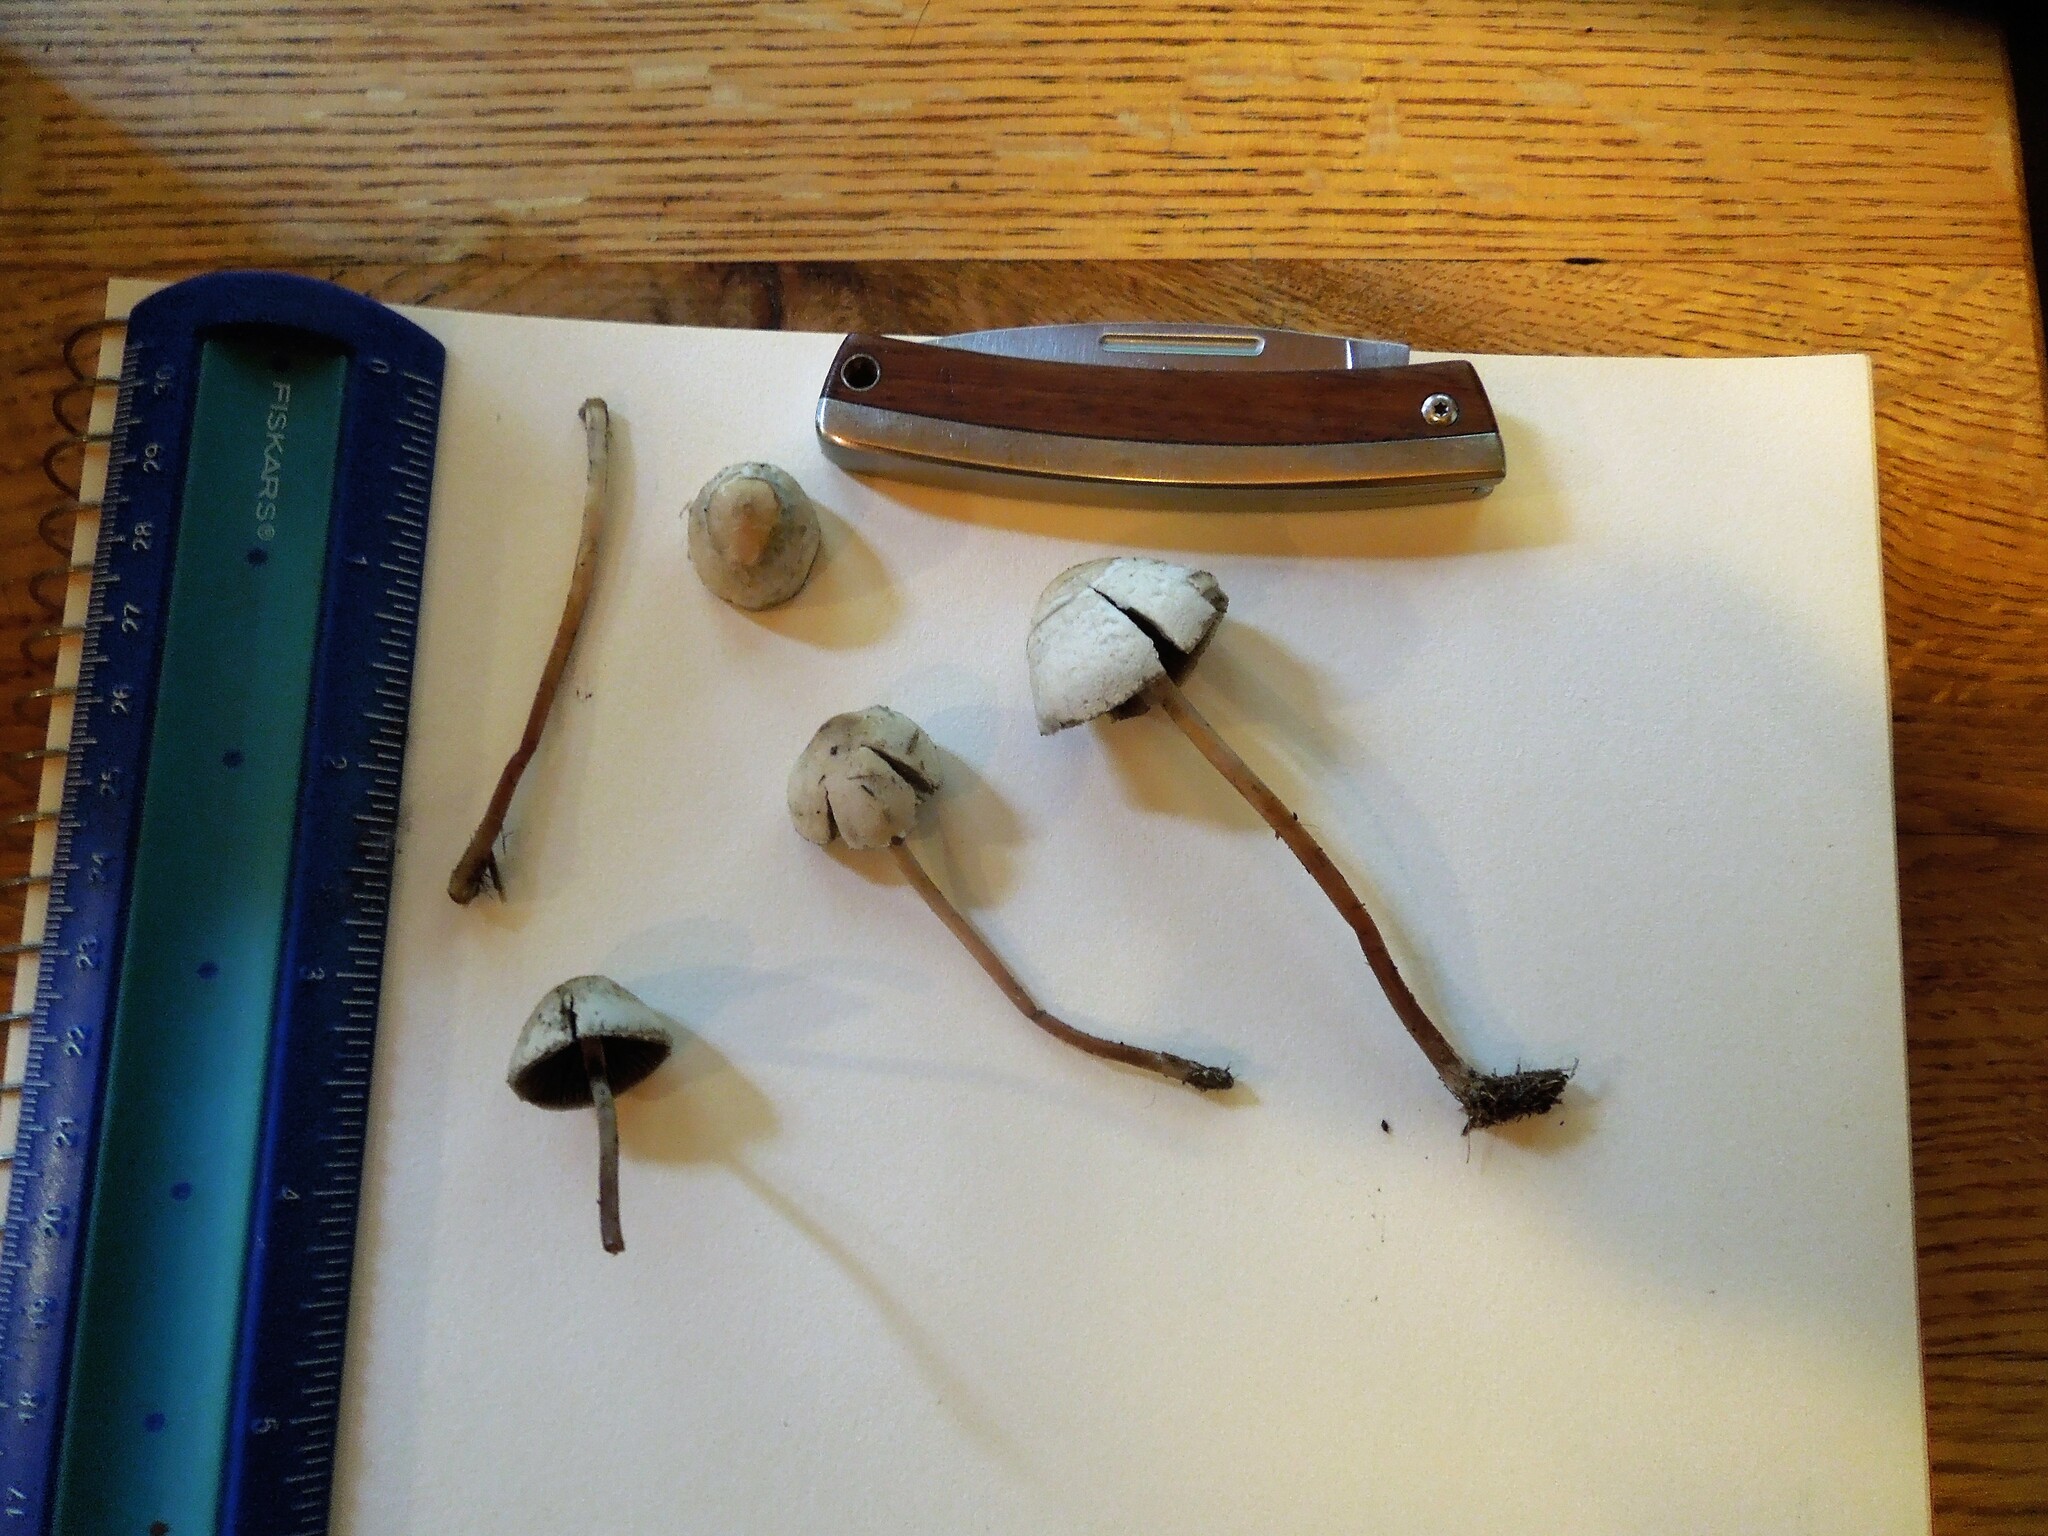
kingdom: Fungi
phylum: Basidiomycota
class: Agaricomycetes
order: Agaricales
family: Bolbitiaceae
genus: Panaeolus
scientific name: Panaeolus papilionaceus
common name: Petticoat mottlegill
